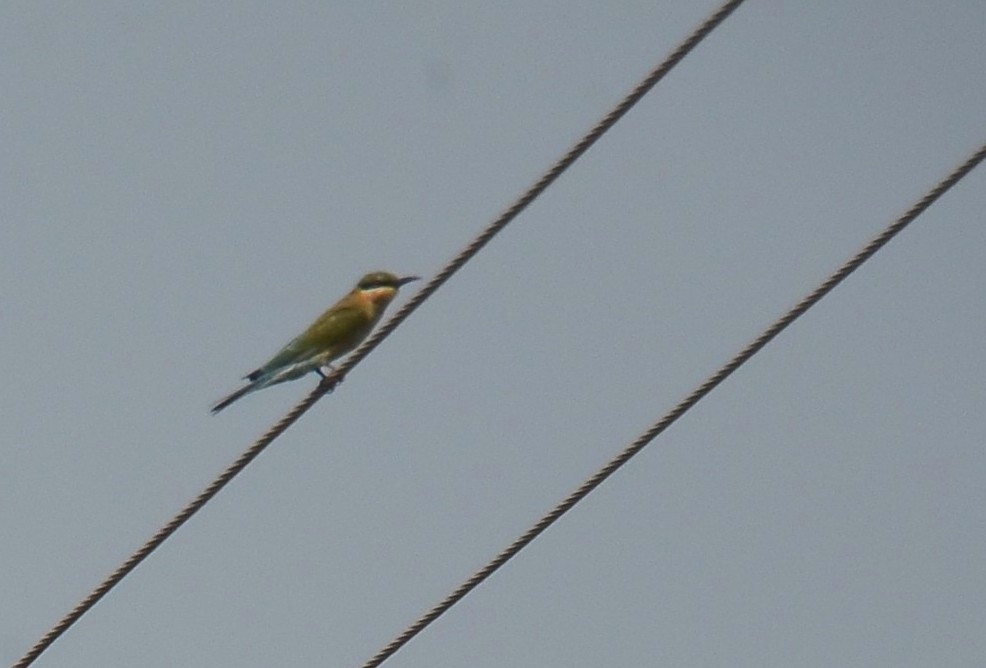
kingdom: Animalia
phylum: Chordata
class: Aves
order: Coraciiformes
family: Meropidae
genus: Merops
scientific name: Merops philippinus
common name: Blue-tailed bee-eater
